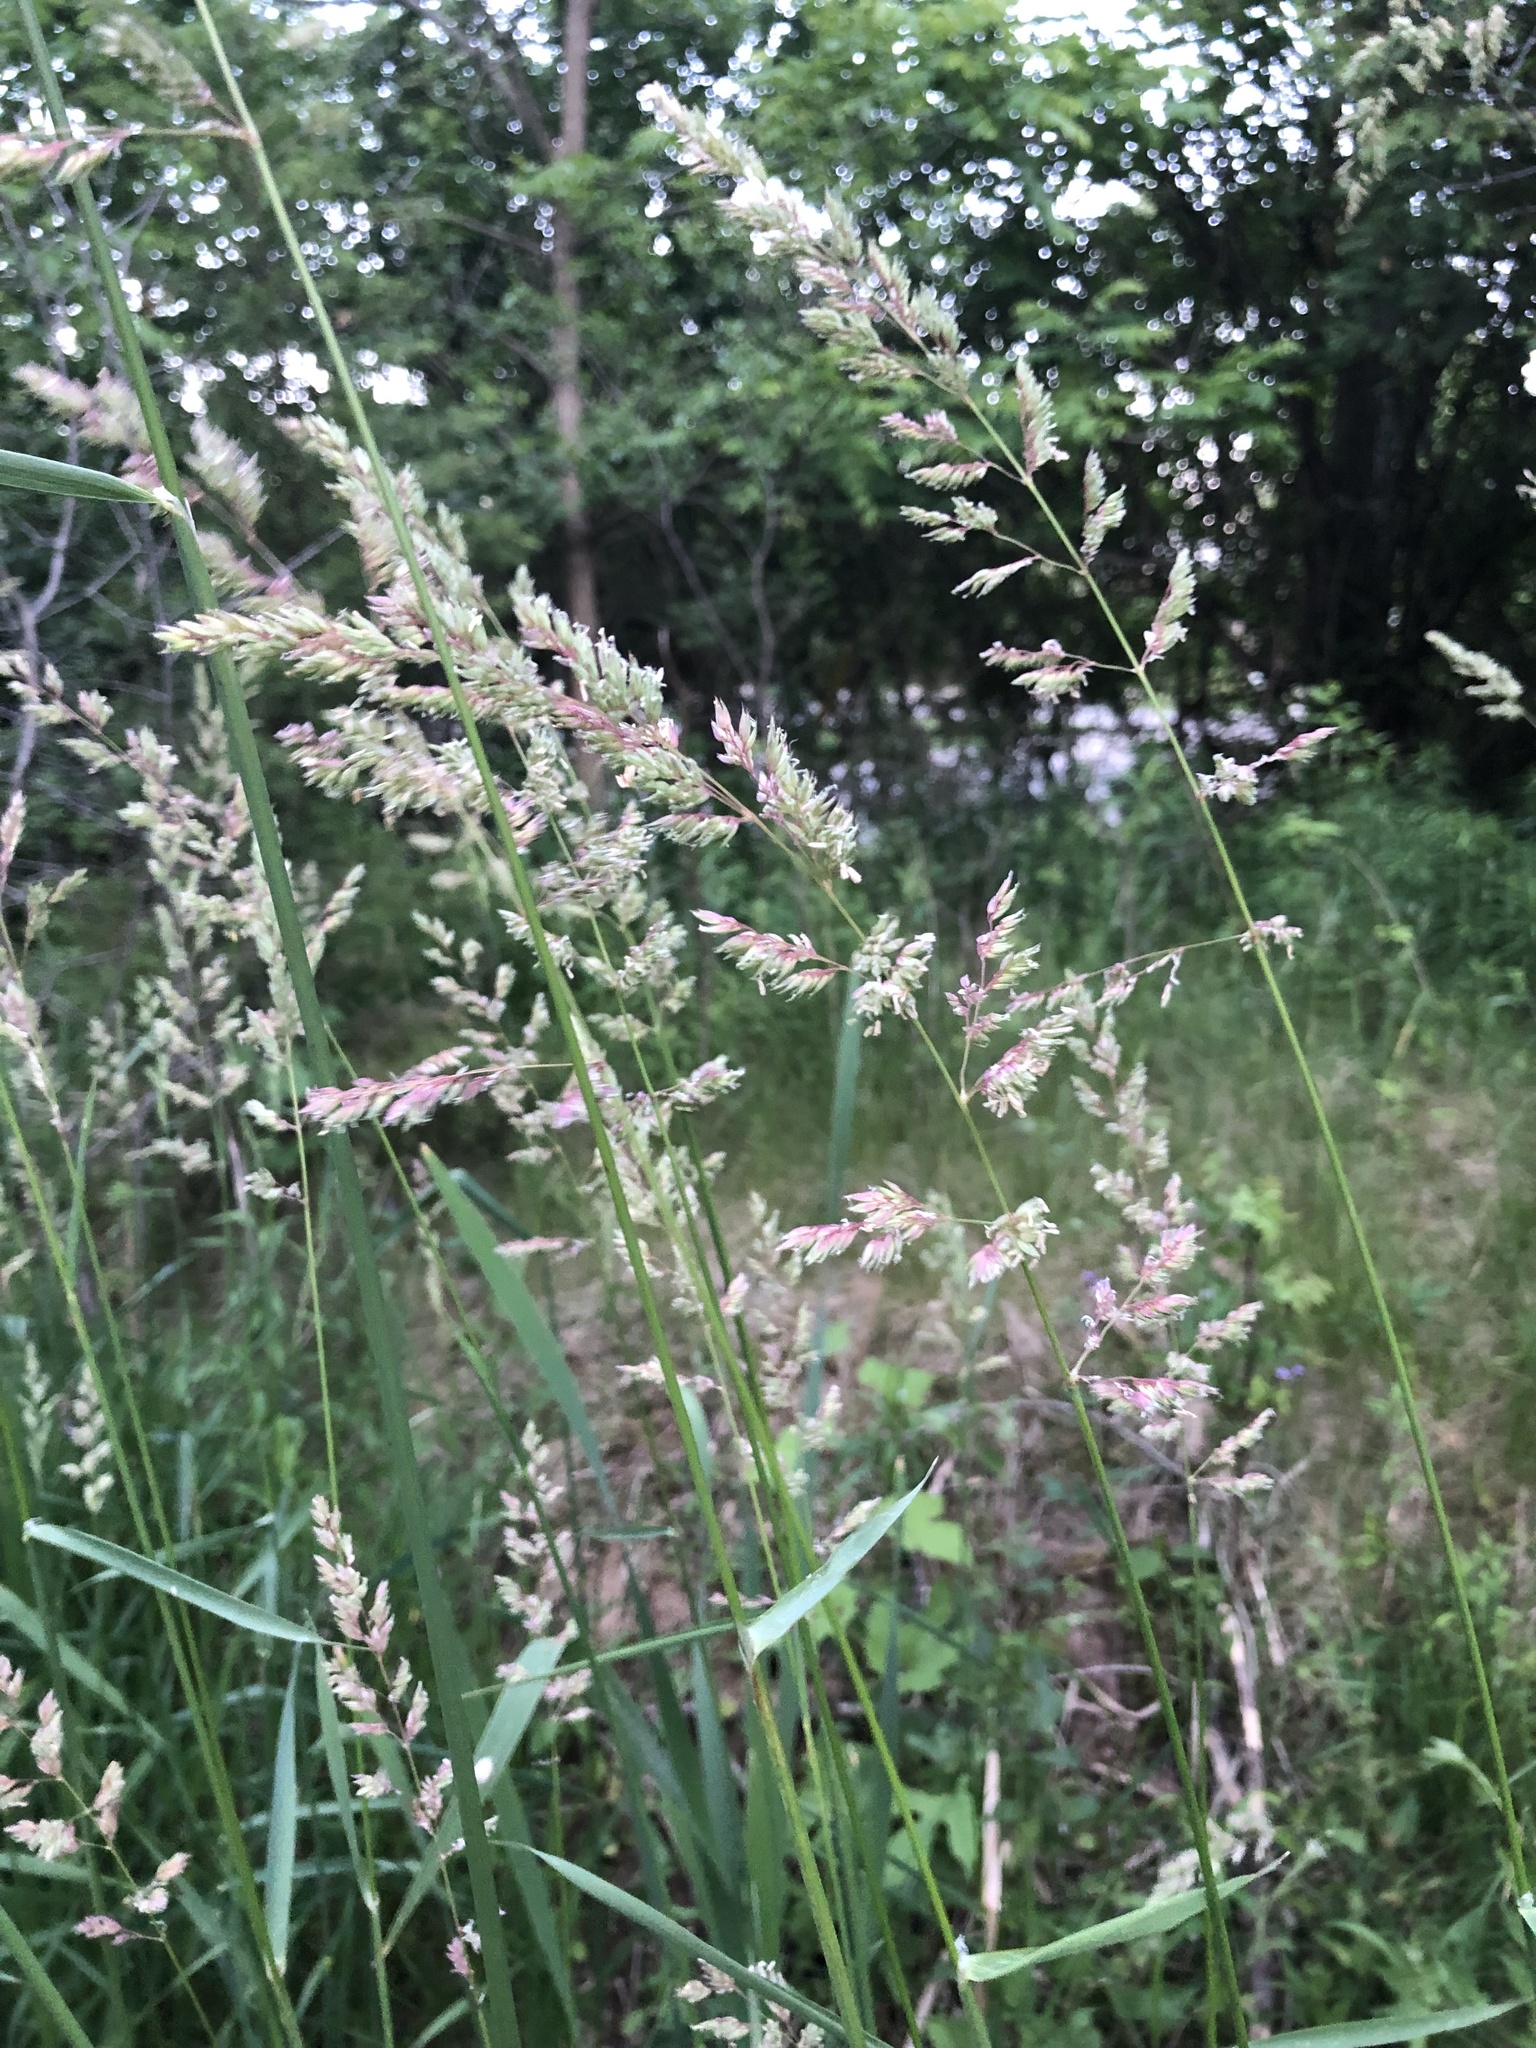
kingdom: Plantae
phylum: Tracheophyta
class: Liliopsida
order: Poales
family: Poaceae
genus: Phalaris
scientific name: Phalaris arundinacea
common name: Reed canary-grass
